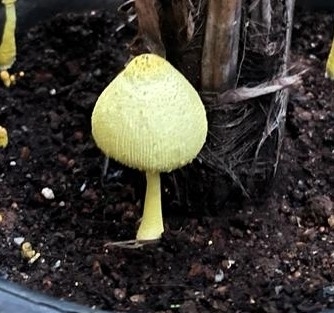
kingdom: Fungi
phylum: Basidiomycota
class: Agaricomycetes
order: Agaricales
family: Agaricaceae
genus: Leucocoprinus
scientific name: Leucocoprinus birnbaumii
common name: Plantpot dapperling
